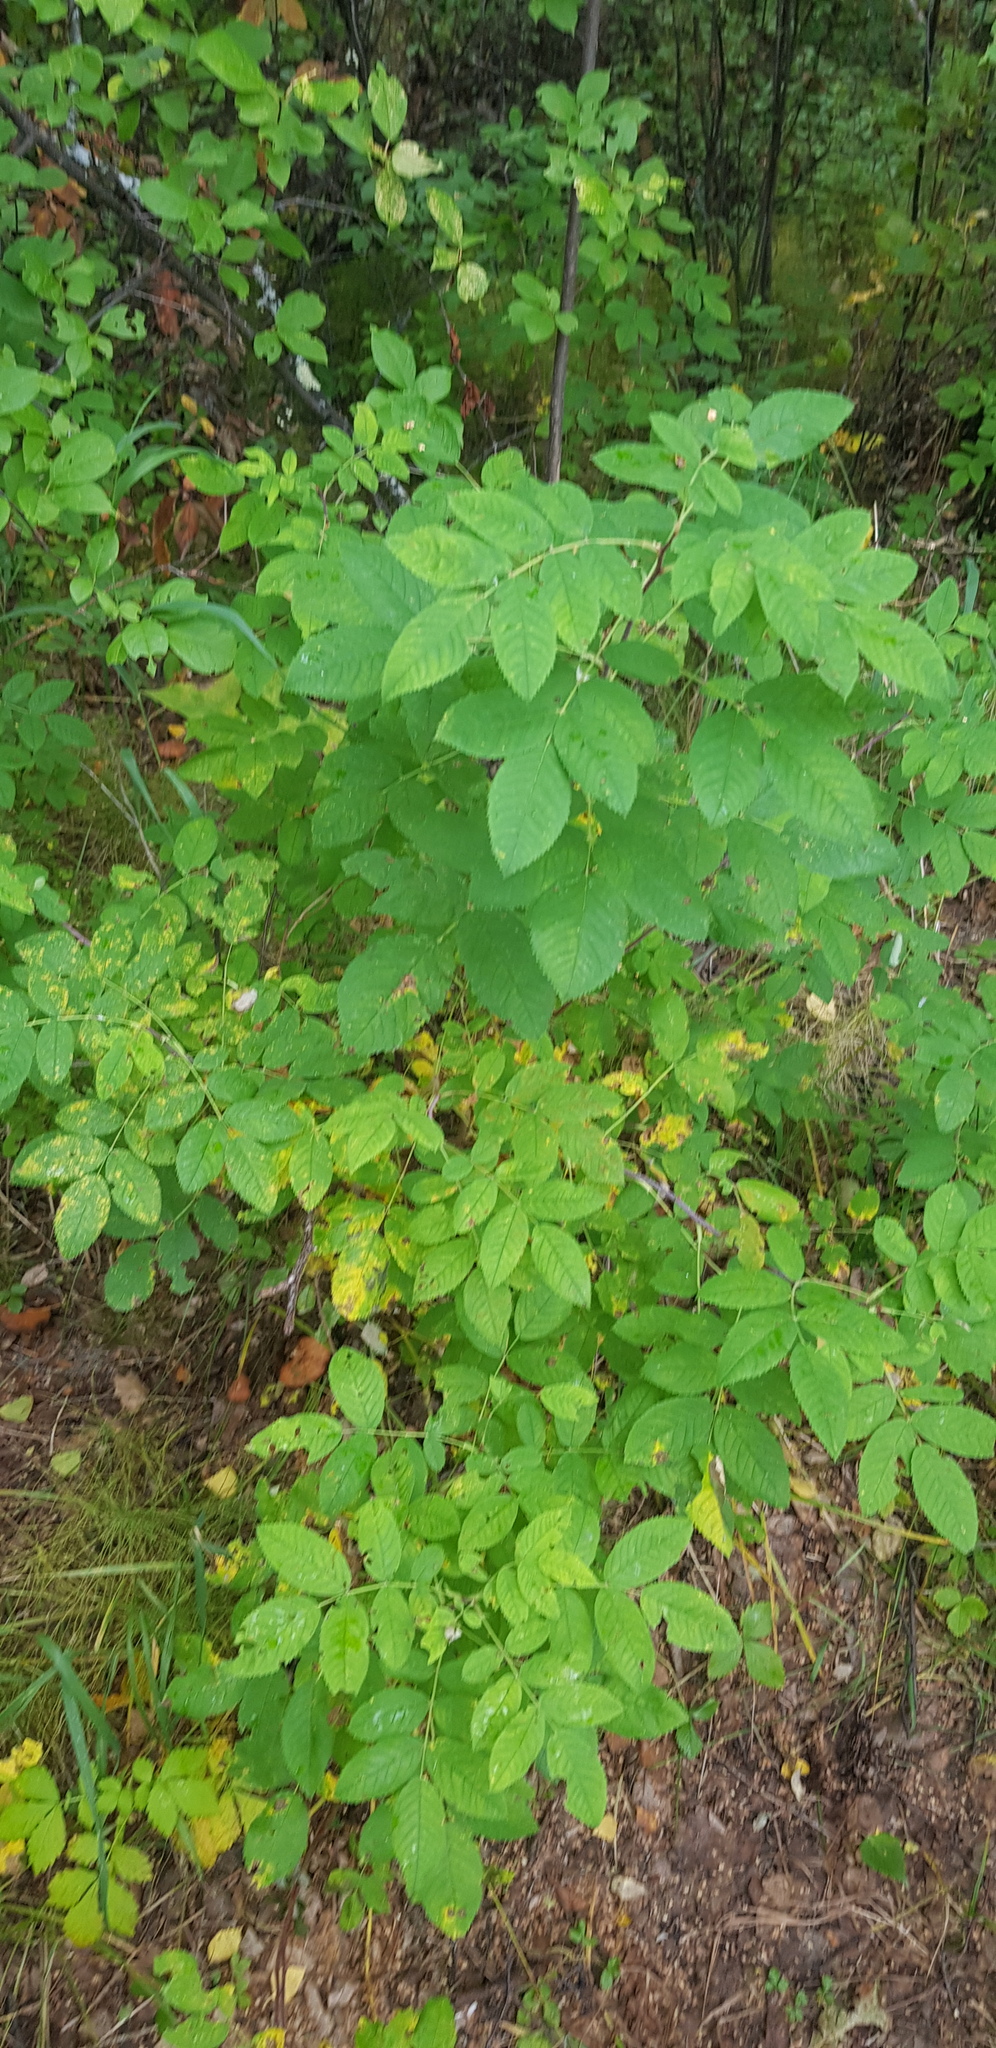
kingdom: Plantae
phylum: Tracheophyta
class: Magnoliopsida
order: Rosales
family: Rosaceae
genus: Rosa
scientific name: Rosa acicularis
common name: Prickly rose
